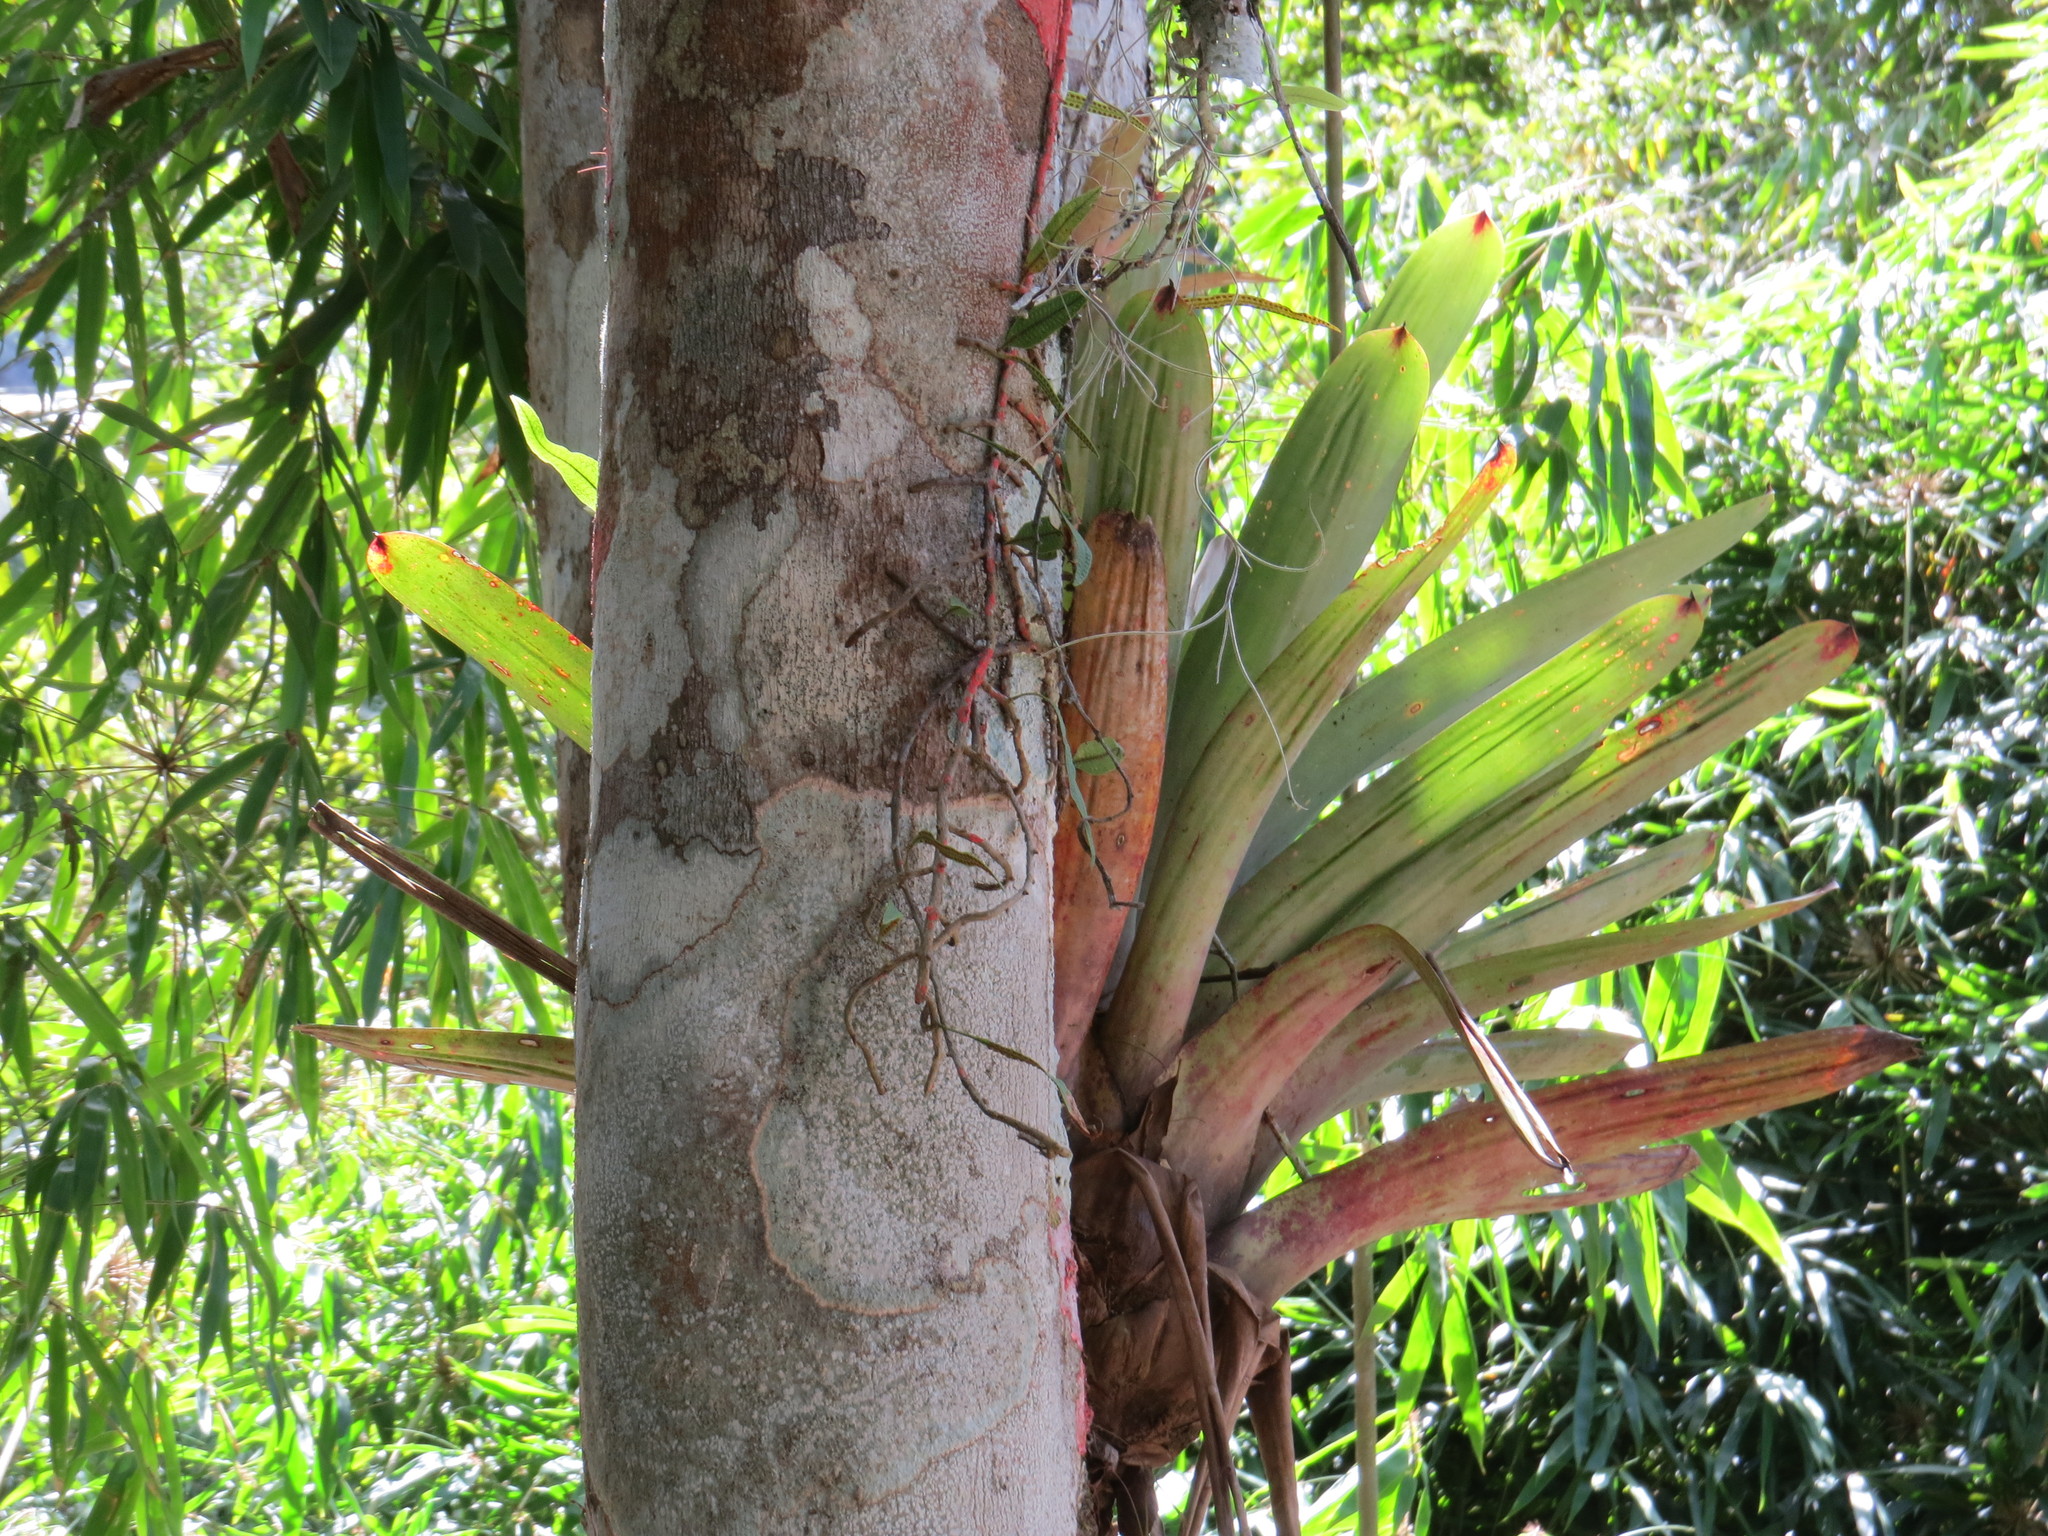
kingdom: Plantae
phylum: Tracheophyta
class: Liliopsida
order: Poales
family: Bromeliaceae
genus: Tillandsia
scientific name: Tillandsia usneoides
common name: Spanish moss
